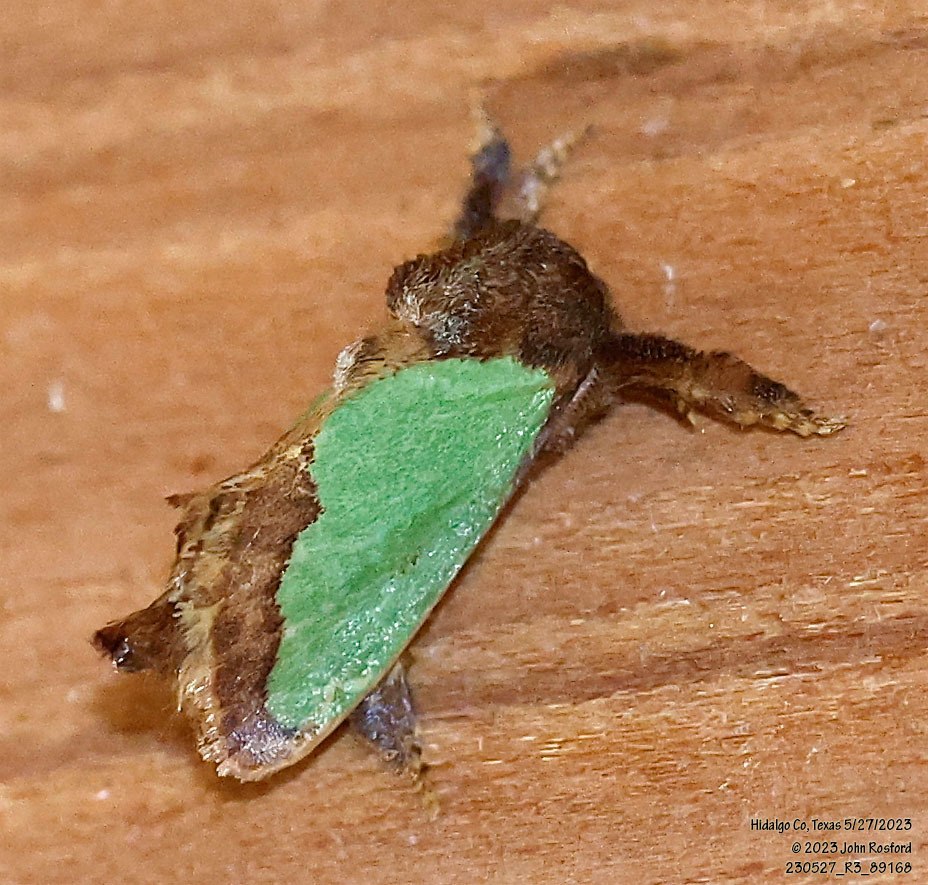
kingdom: Animalia
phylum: Arthropoda
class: Insecta
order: Lepidoptera
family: Limacodidae
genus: Euclea
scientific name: Euclea incisa
